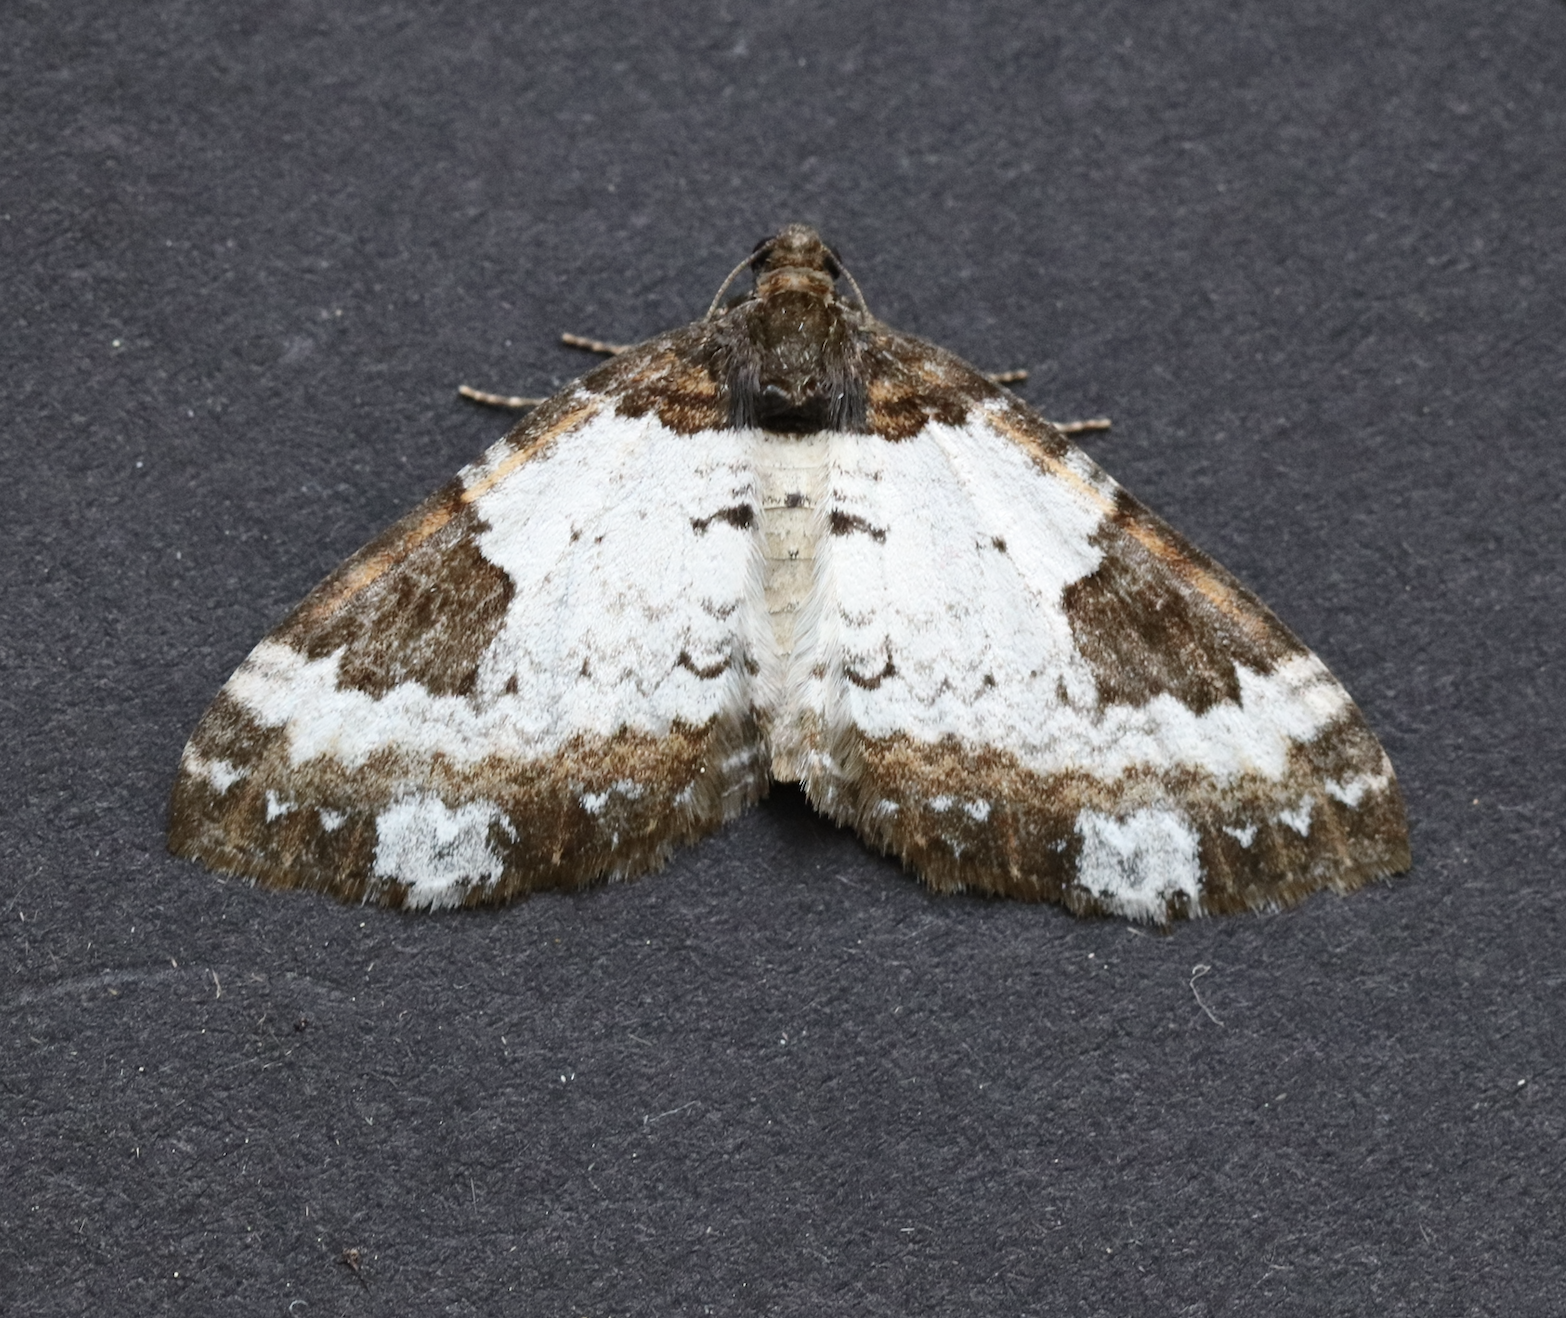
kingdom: Animalia
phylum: Arthropoda
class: Insecta
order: Lepidoptera
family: Geometridae
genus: Melanthia
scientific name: Melanthia procellata
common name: Pretty chalk carpet
